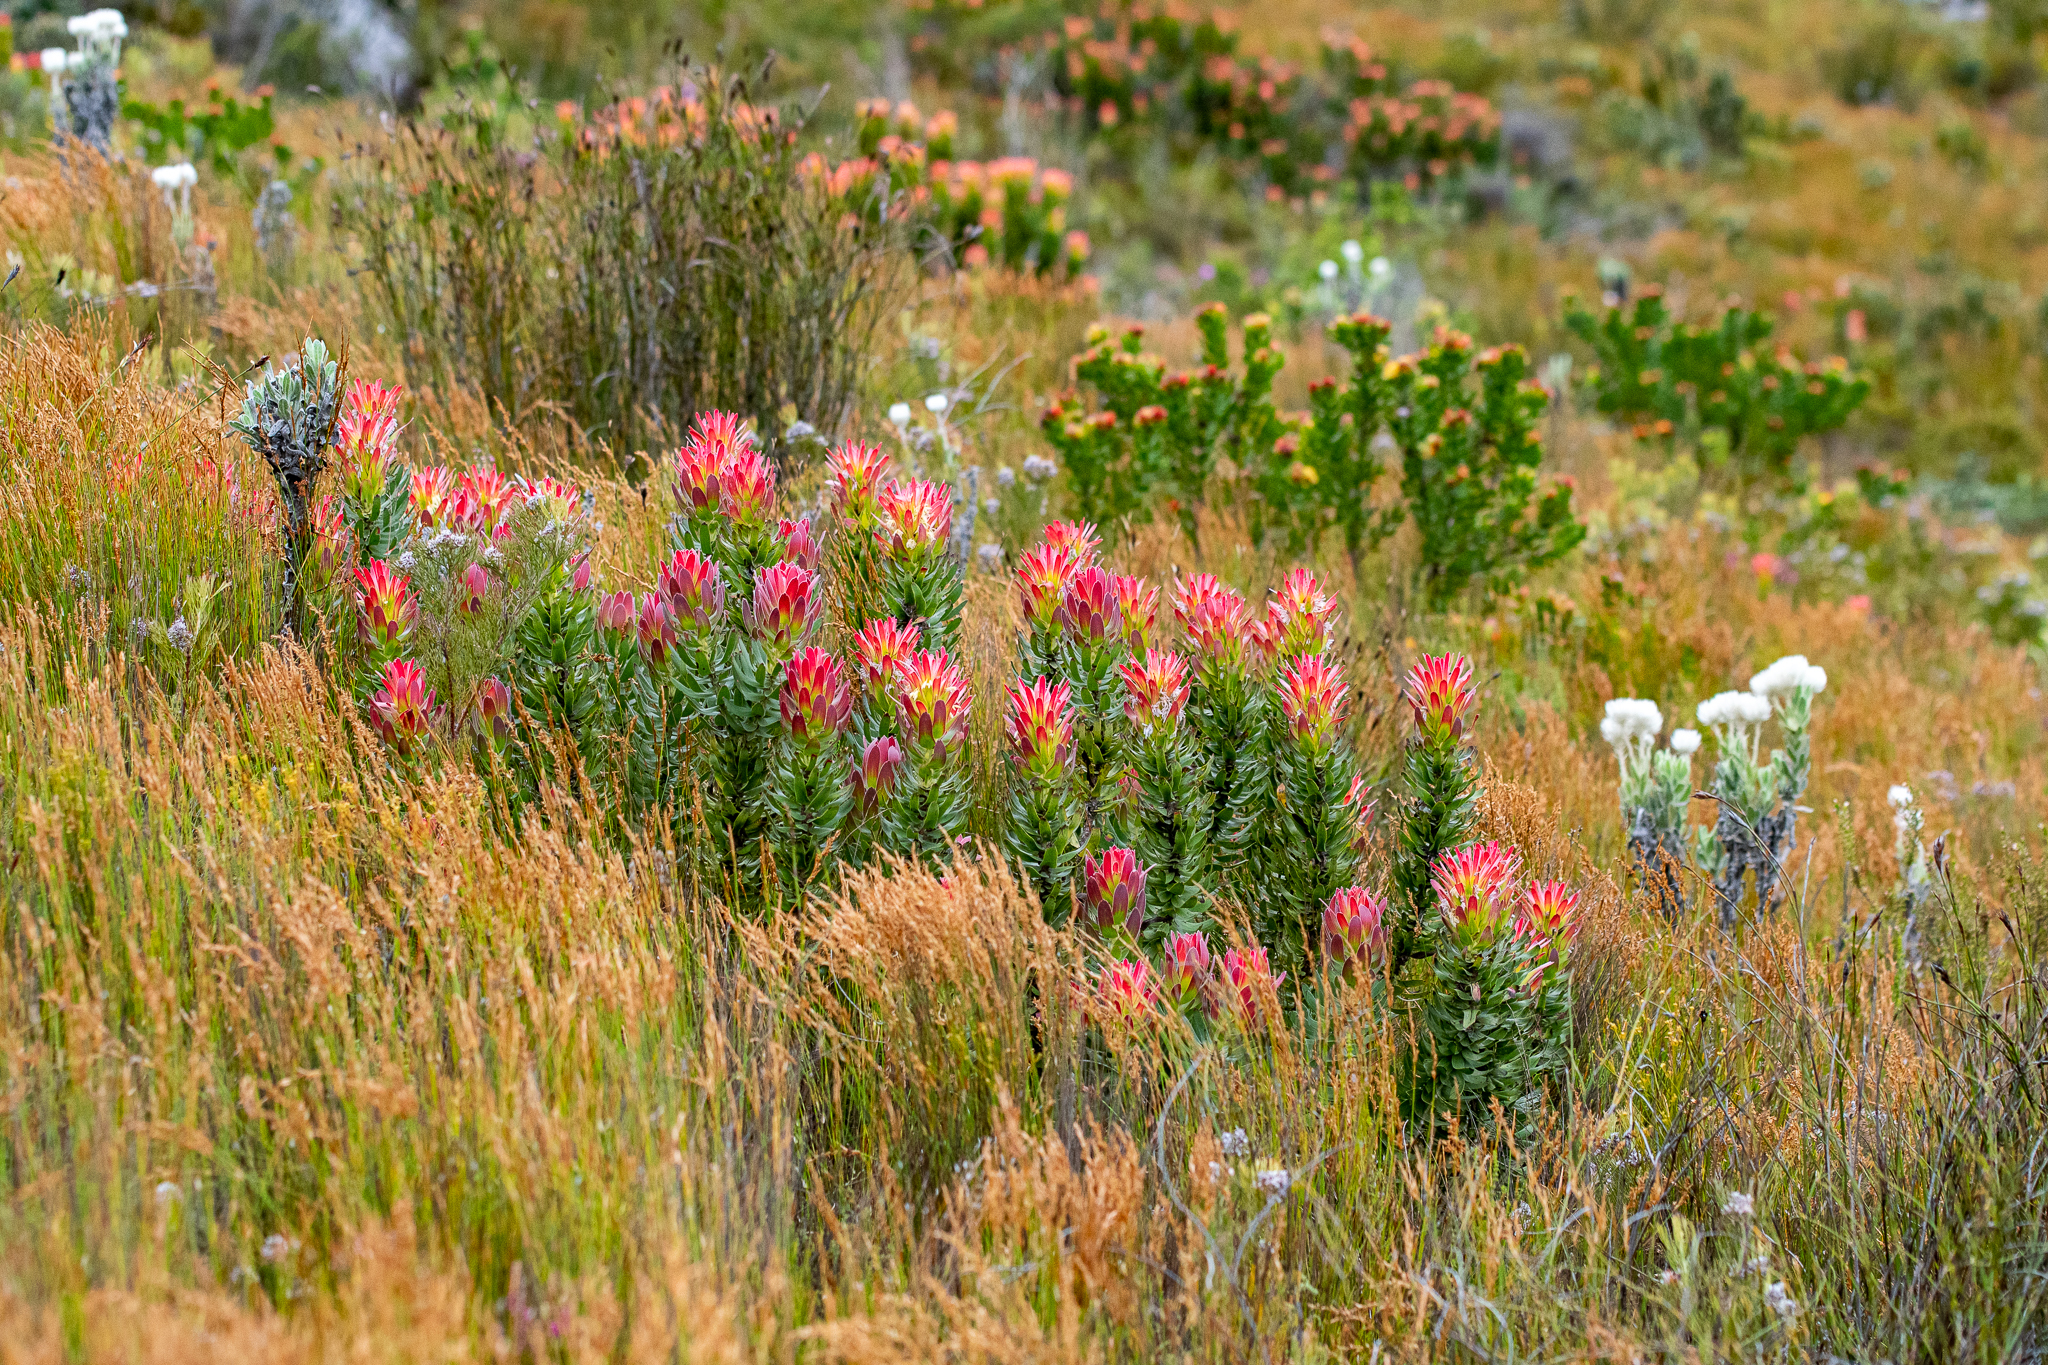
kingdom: Plantae
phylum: Tracheophyta
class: Magnoliopsida
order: Proteales
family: Proteaceae
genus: Mimetes
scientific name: Mimetes cucullatus
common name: Common pagoda
